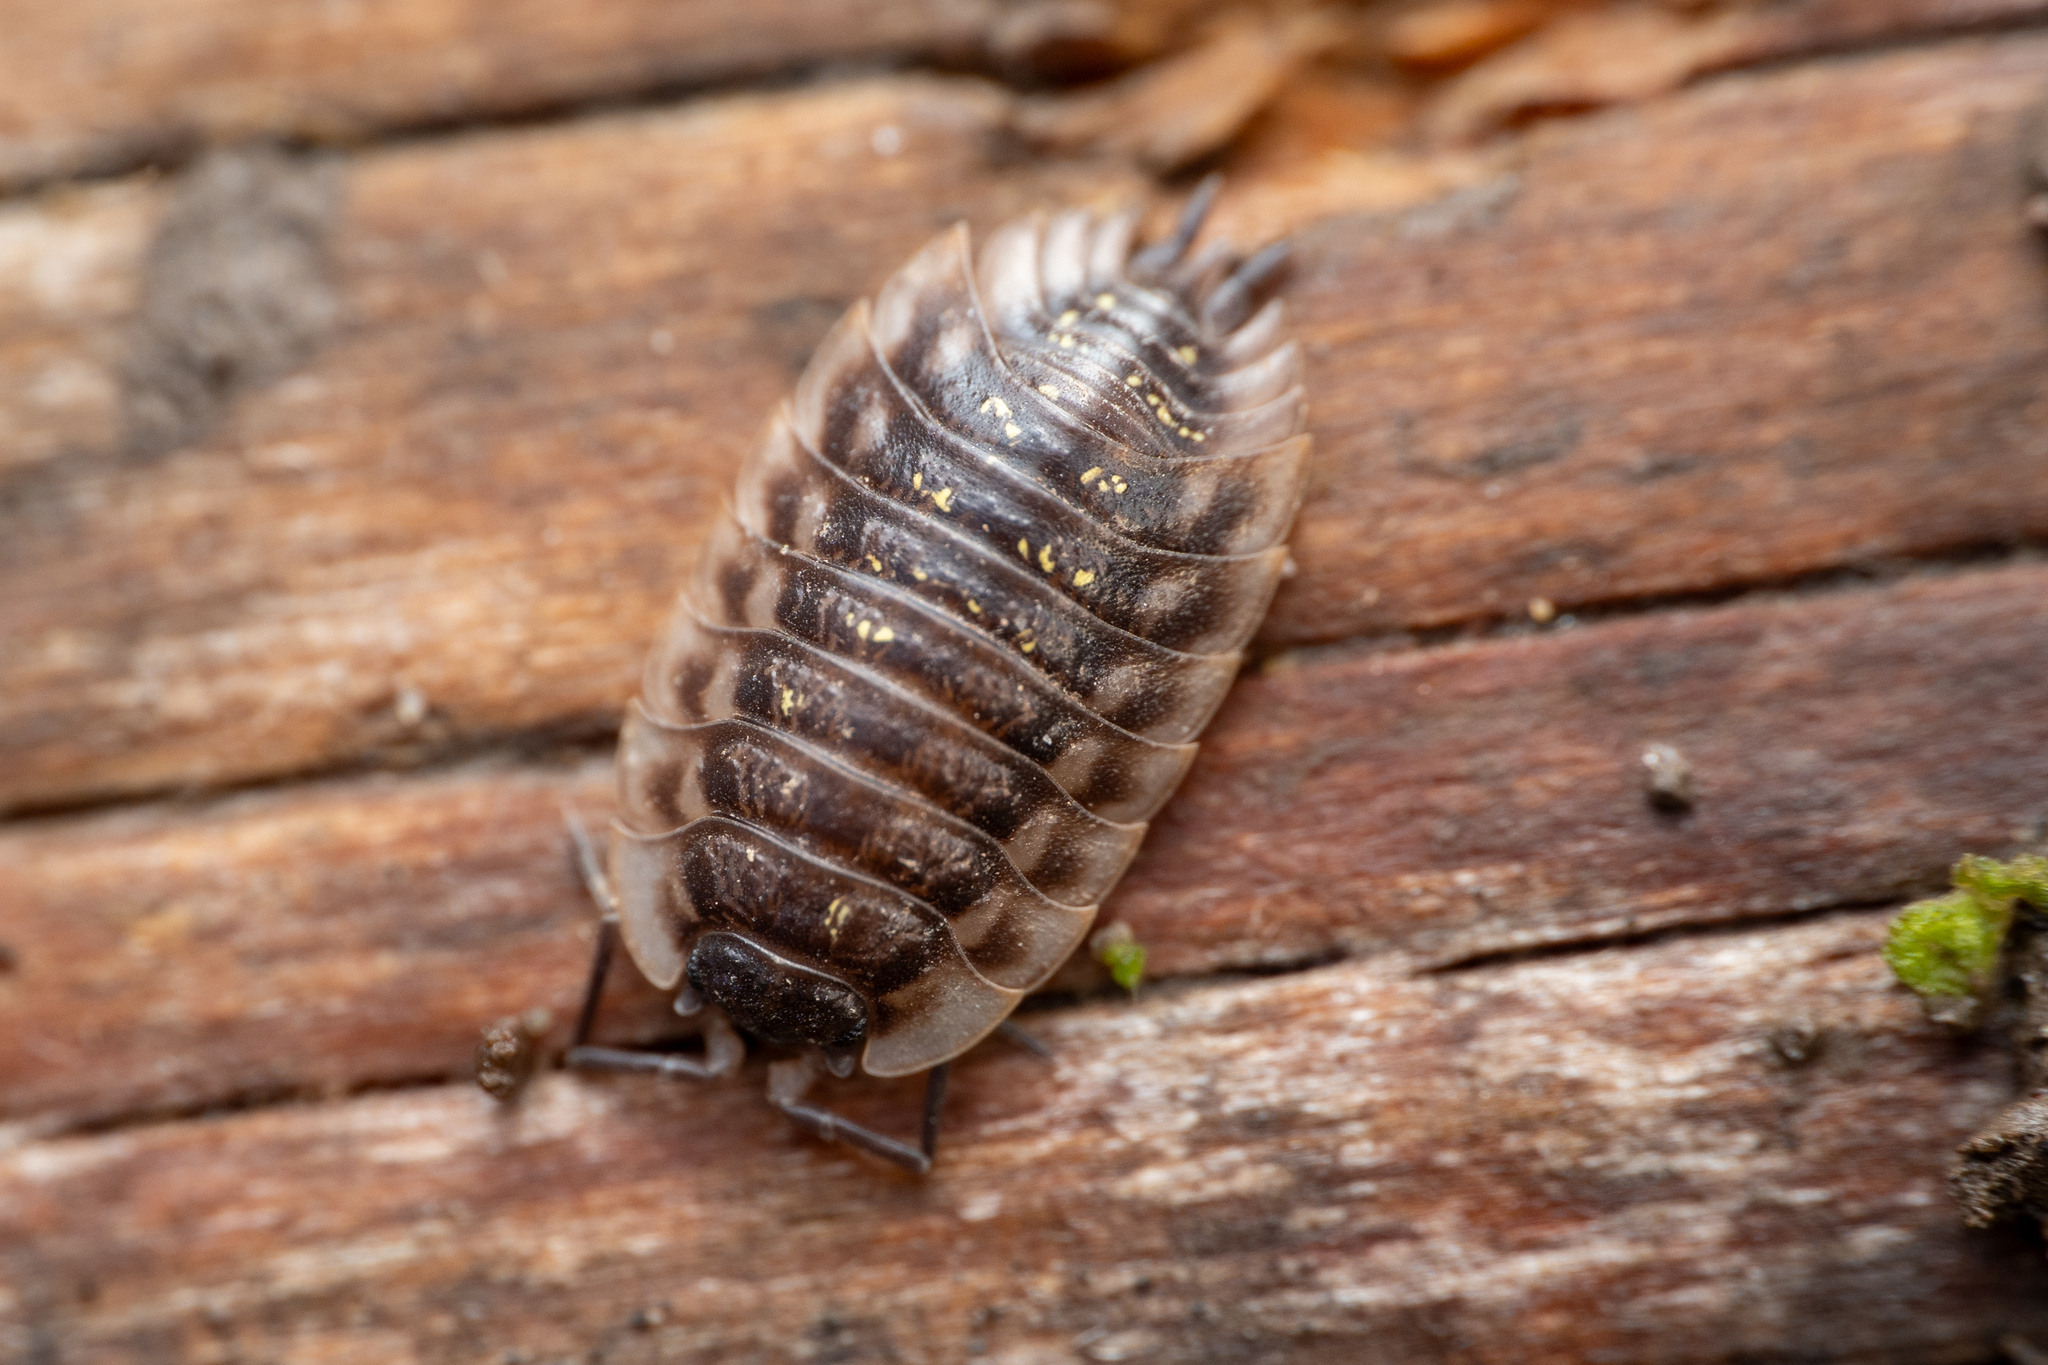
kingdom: Animalia
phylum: Arthropoda
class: Malacostraca
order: Isopoda
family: Oniscidae
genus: Oniscus
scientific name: Oniscus asellus
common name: Common shiny woodlouse
